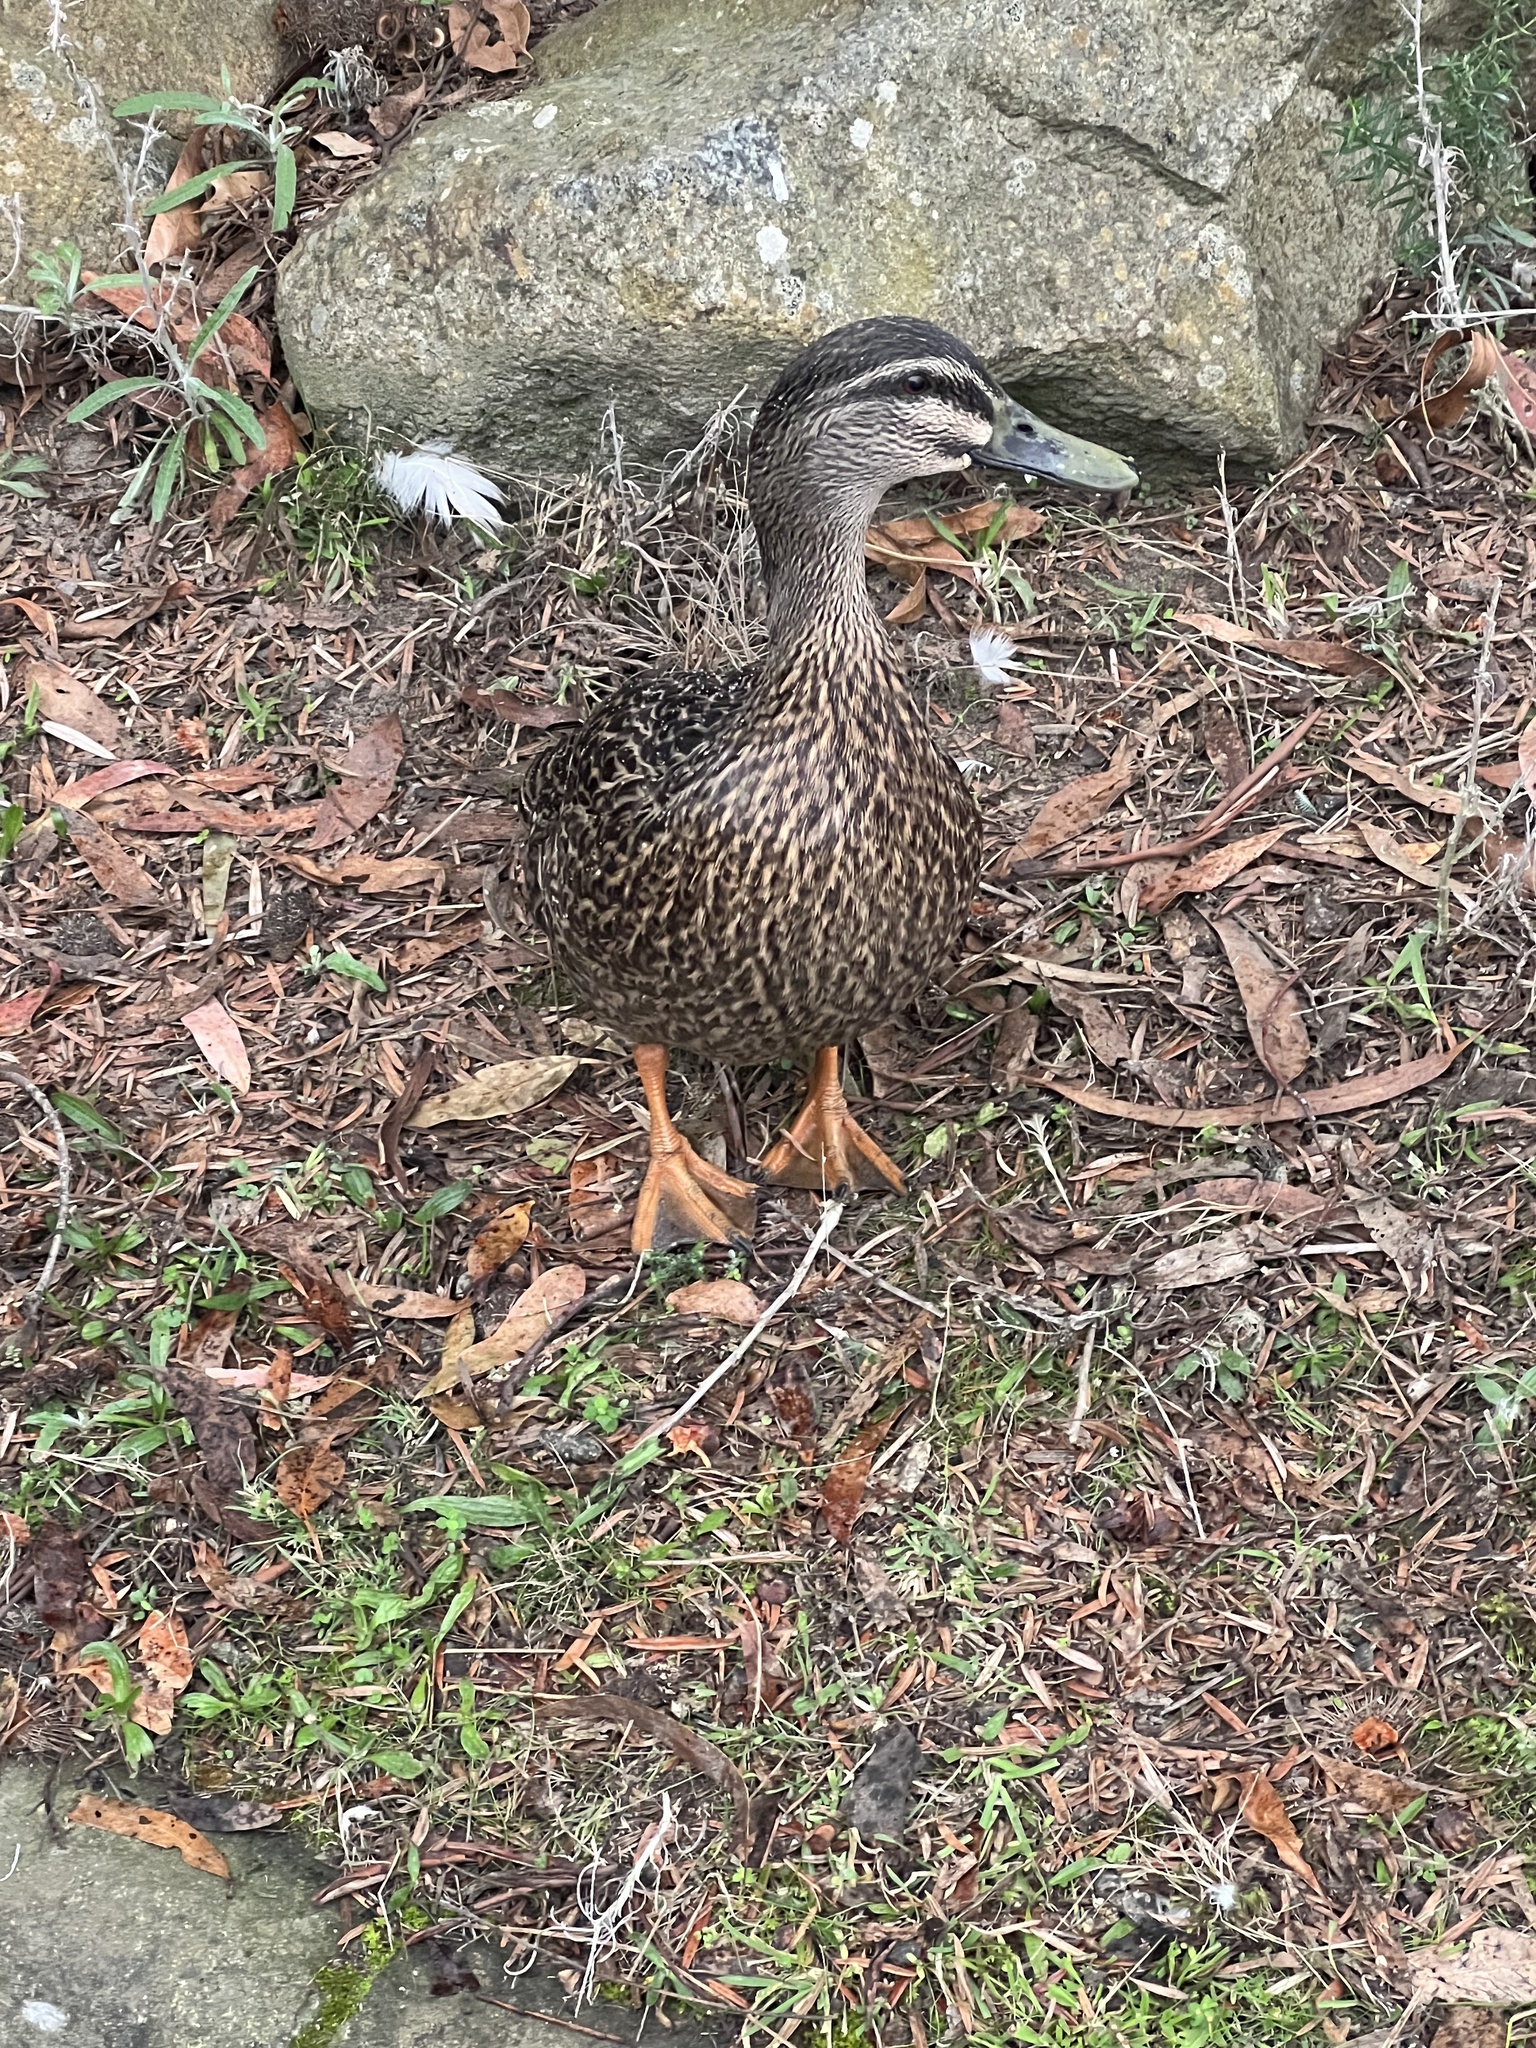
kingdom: Animalia
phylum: Chordata
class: Aves
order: Anseriformes
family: Anatidae
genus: Anas
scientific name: Anas
